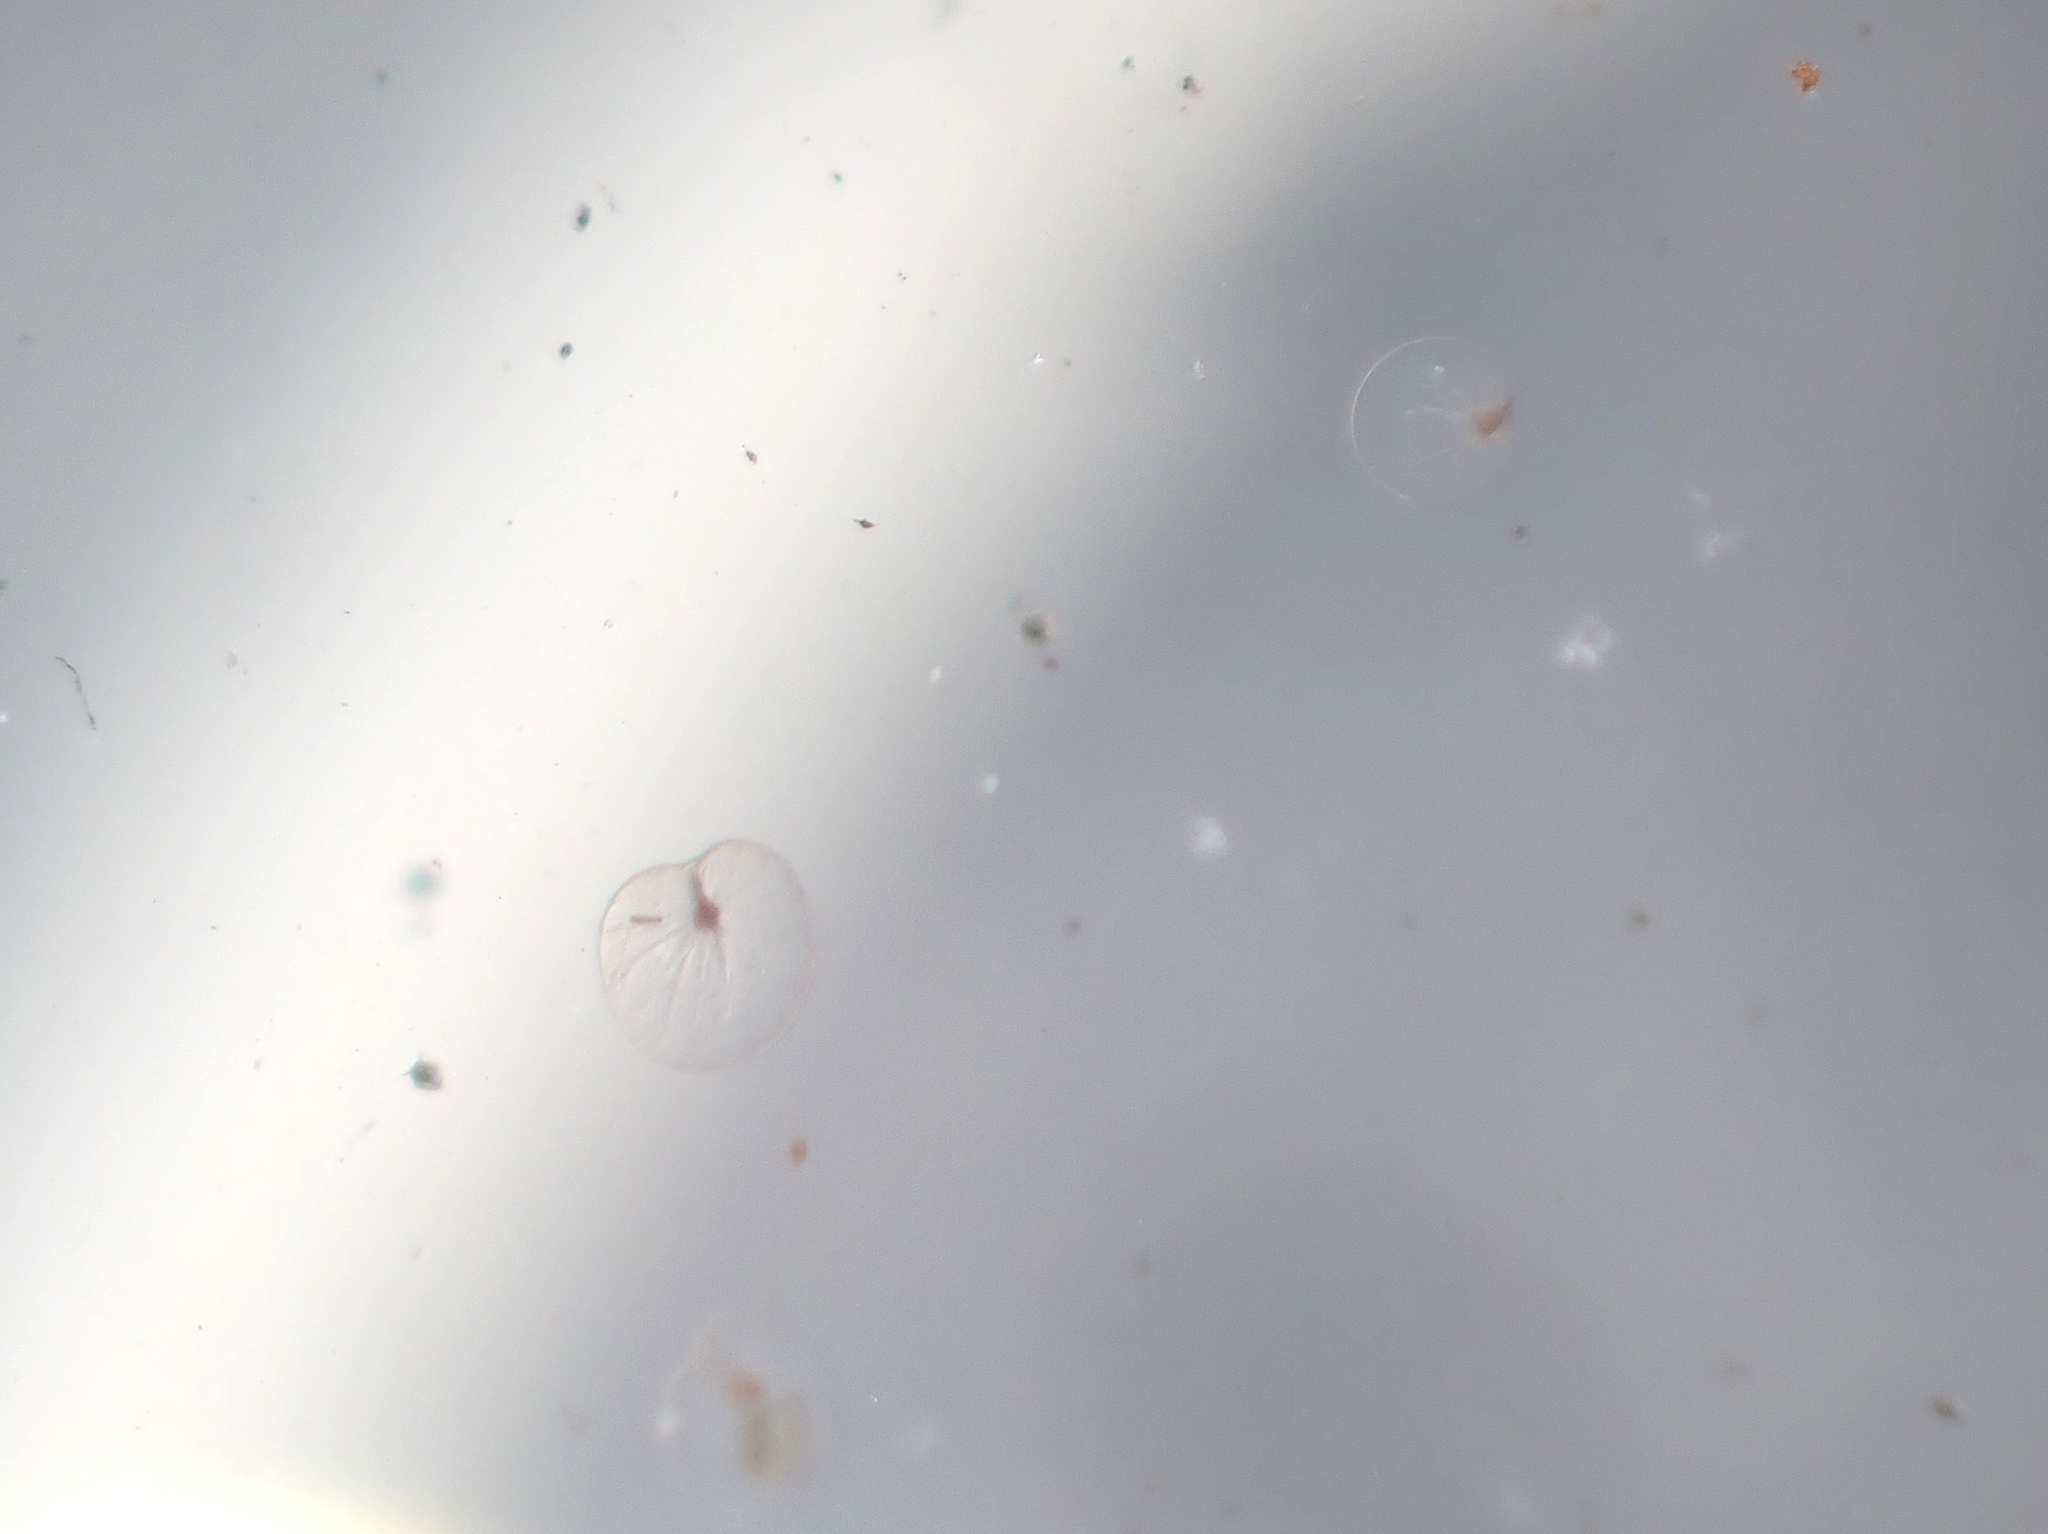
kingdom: Chromista
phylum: Myzozoa
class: Dinophyceae
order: Noctilucales
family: Noctilucaceae
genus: Noctiluca
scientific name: Noctiluca scintillans
